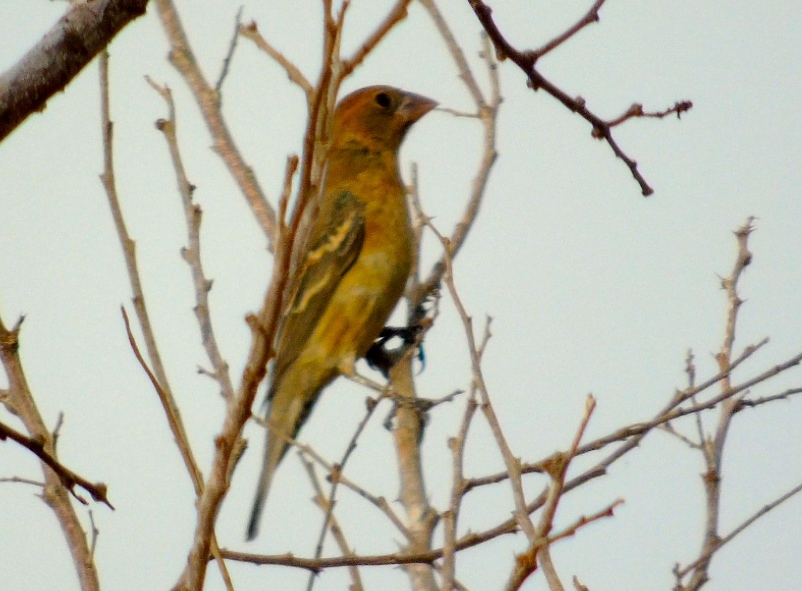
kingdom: Animalia
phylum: Chordata
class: Aves
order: Passeriformes
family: Cardinalidae
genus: Passerina
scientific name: Passerina amoena
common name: Lazuli bunting
